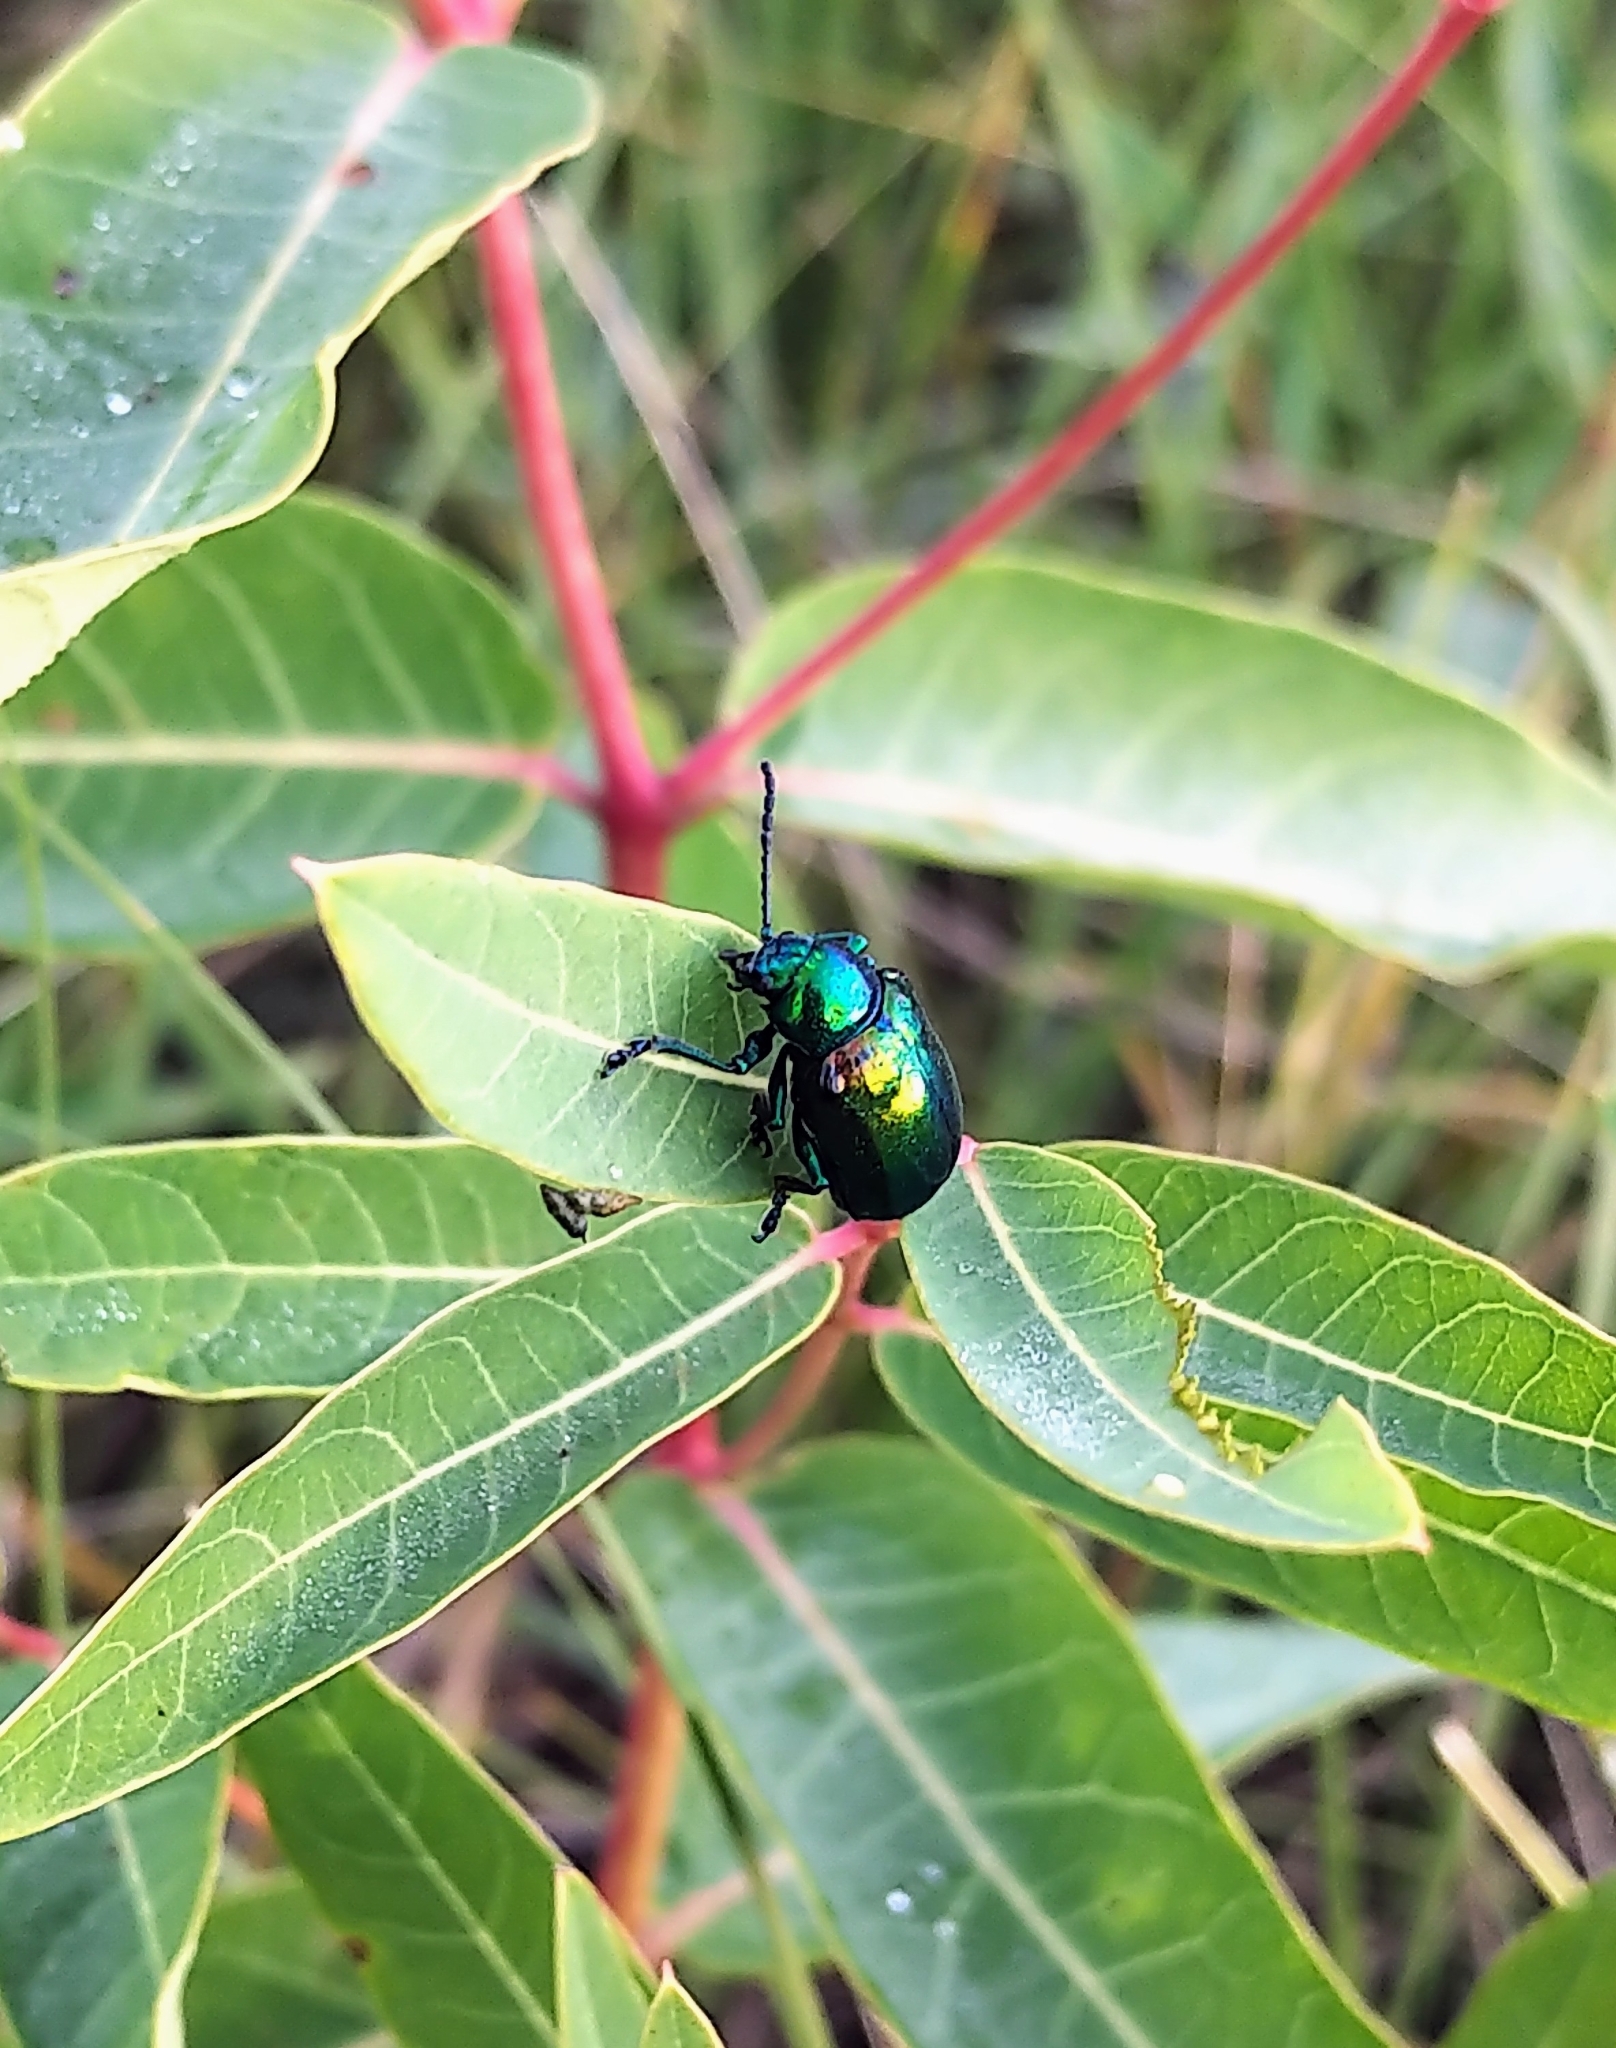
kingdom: Animalia
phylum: Arthropoda
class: Insecta
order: Coleoptera
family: Chrysomelidae
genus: Chrysochus
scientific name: Chrysochus auratus
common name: Dogbane leaf beetle
